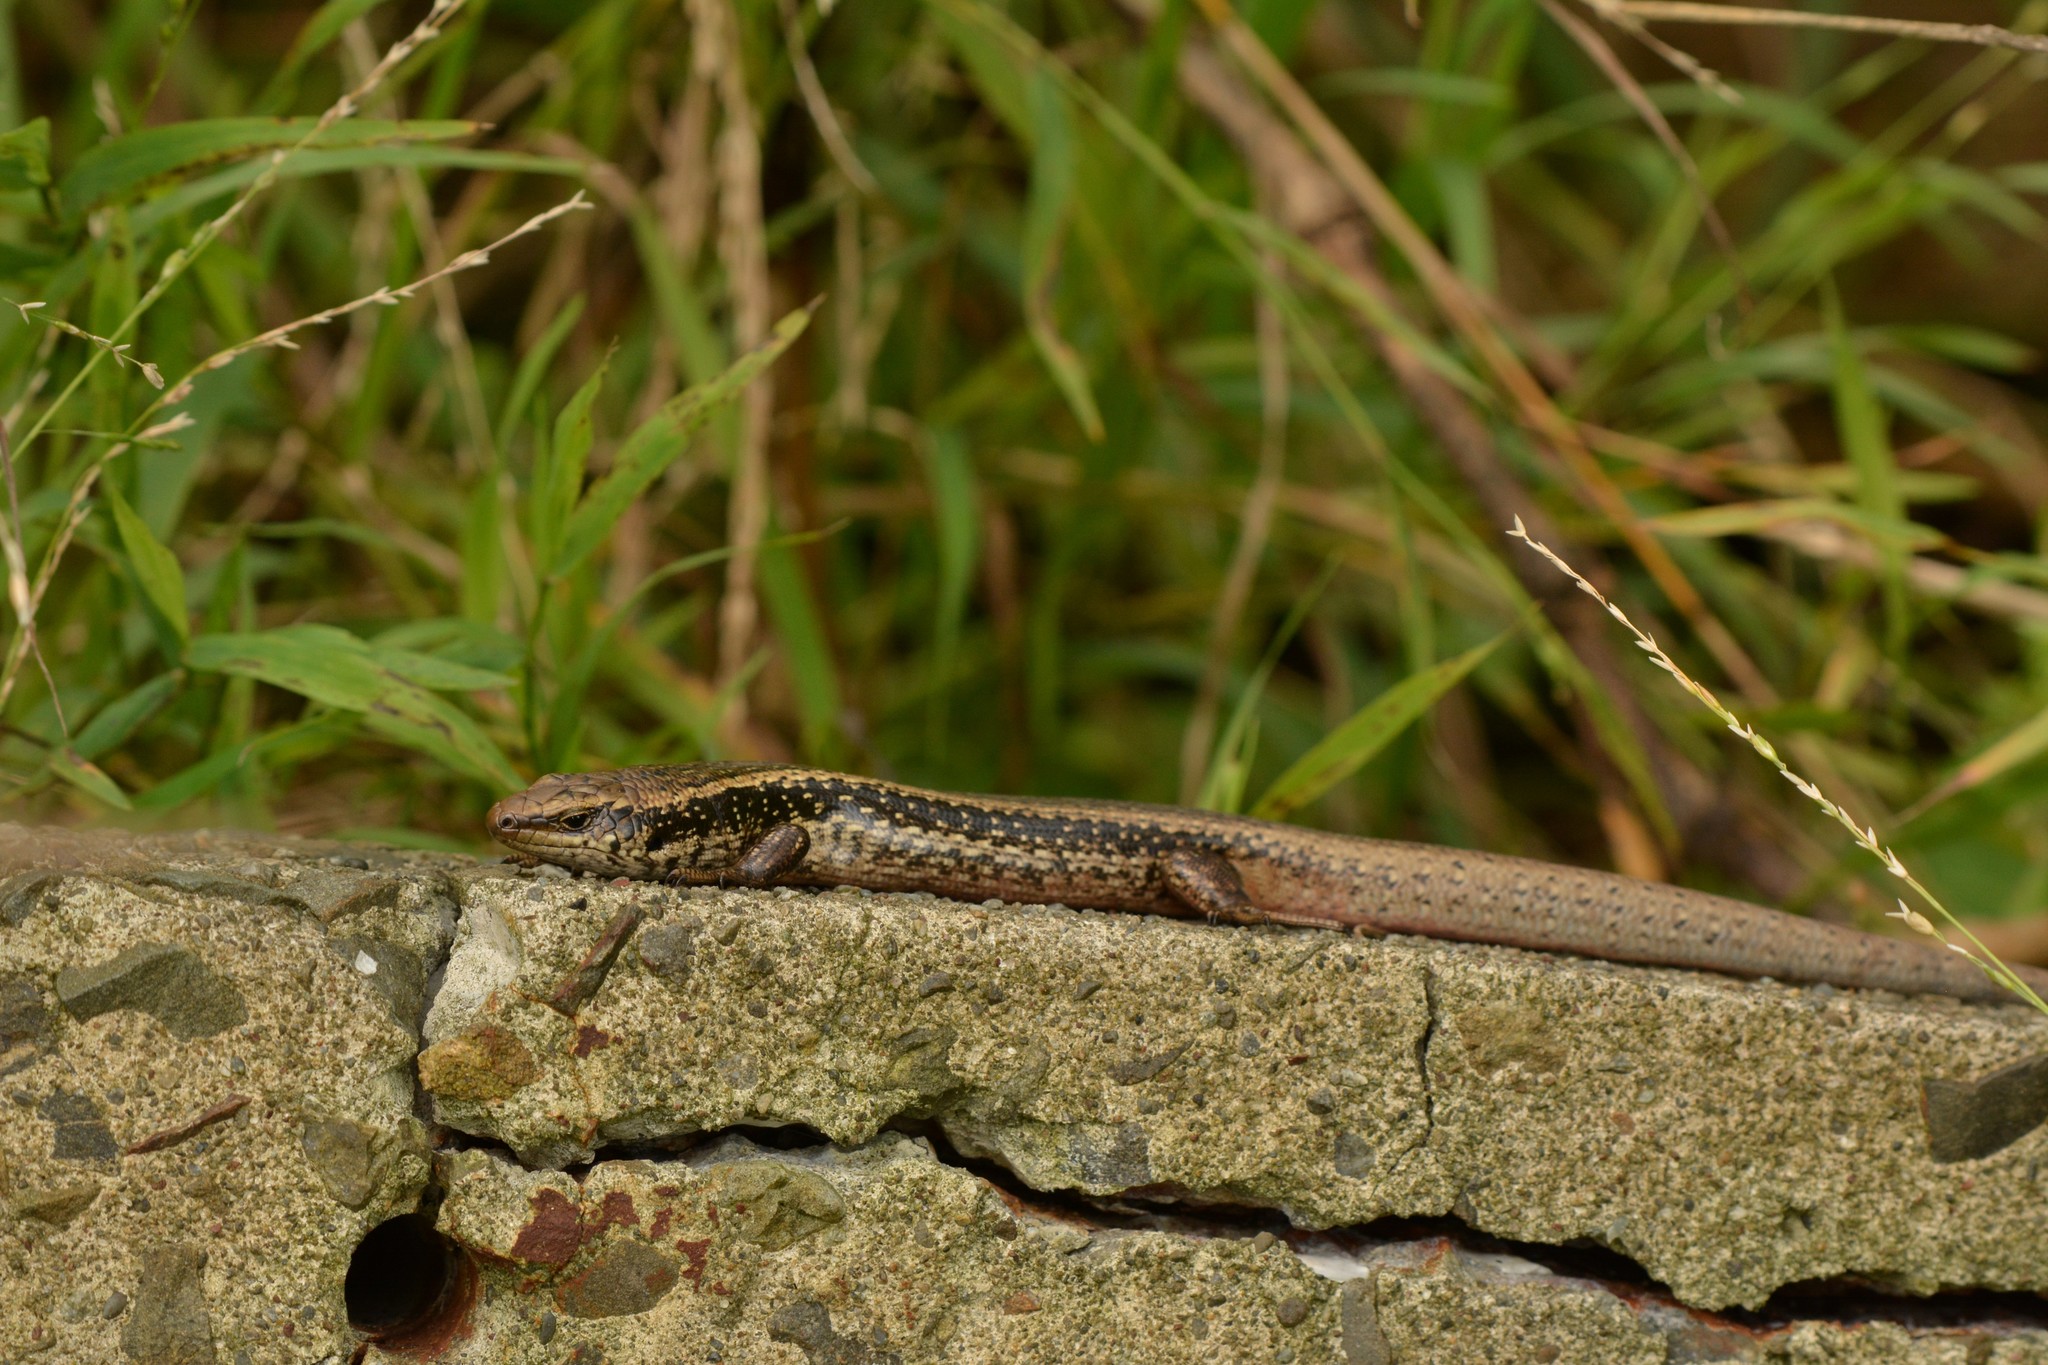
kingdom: Animalia
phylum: Chordata
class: Squamata
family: Scincidae
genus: Oligosoma
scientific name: Oligosoma kokowai
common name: Northern spotted skink
